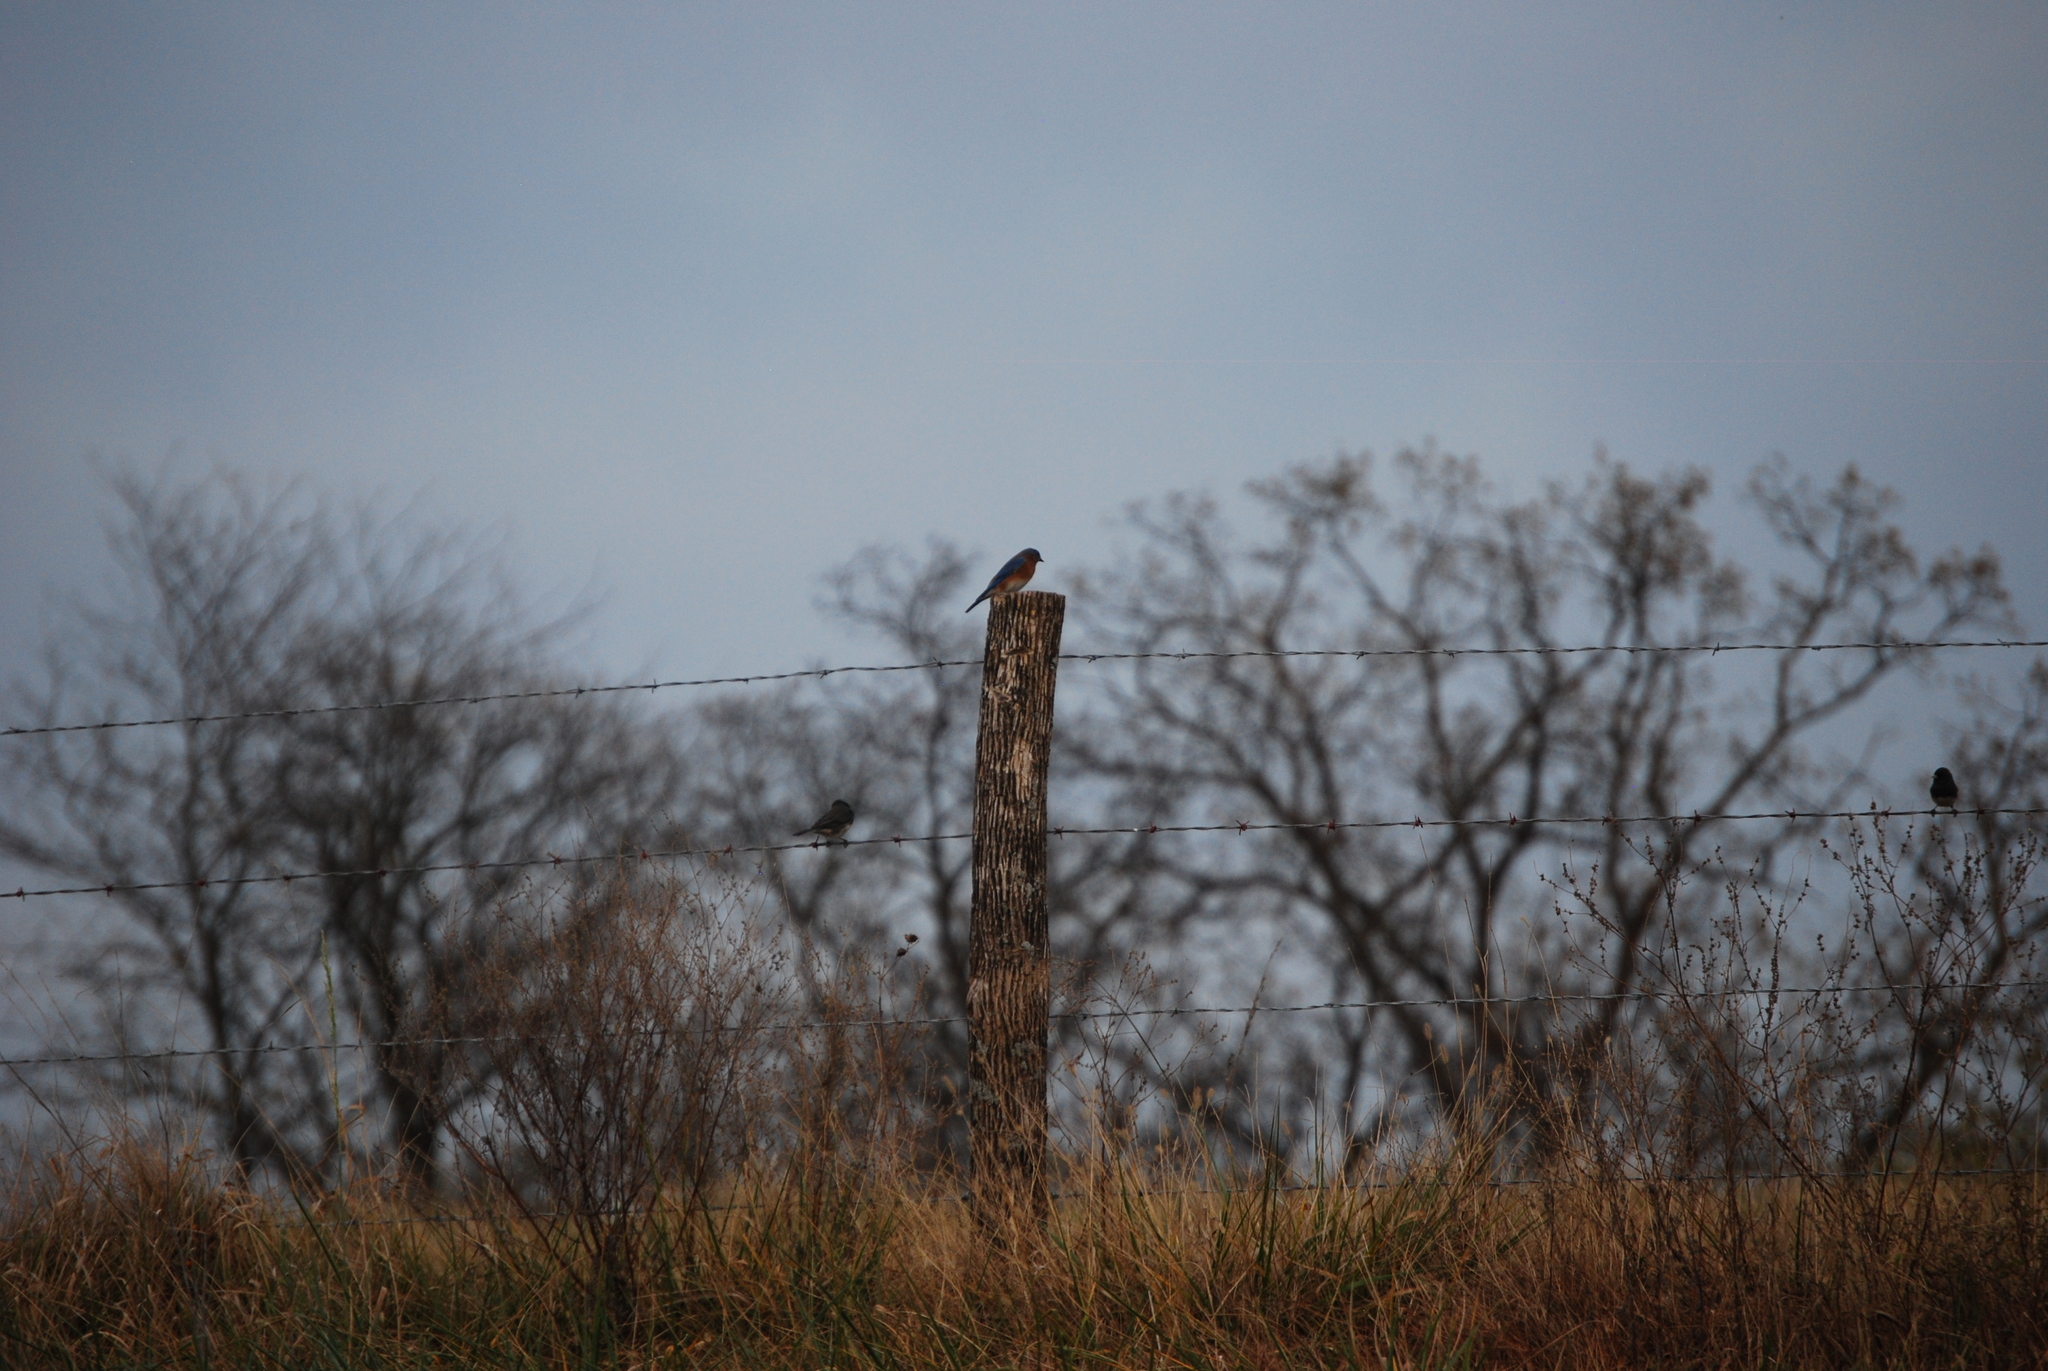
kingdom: Animalia
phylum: Chordata
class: Aves
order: Passeriformes
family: Turdidae
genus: Sialia
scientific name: Sialia sialis
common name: Eastern bluebird
